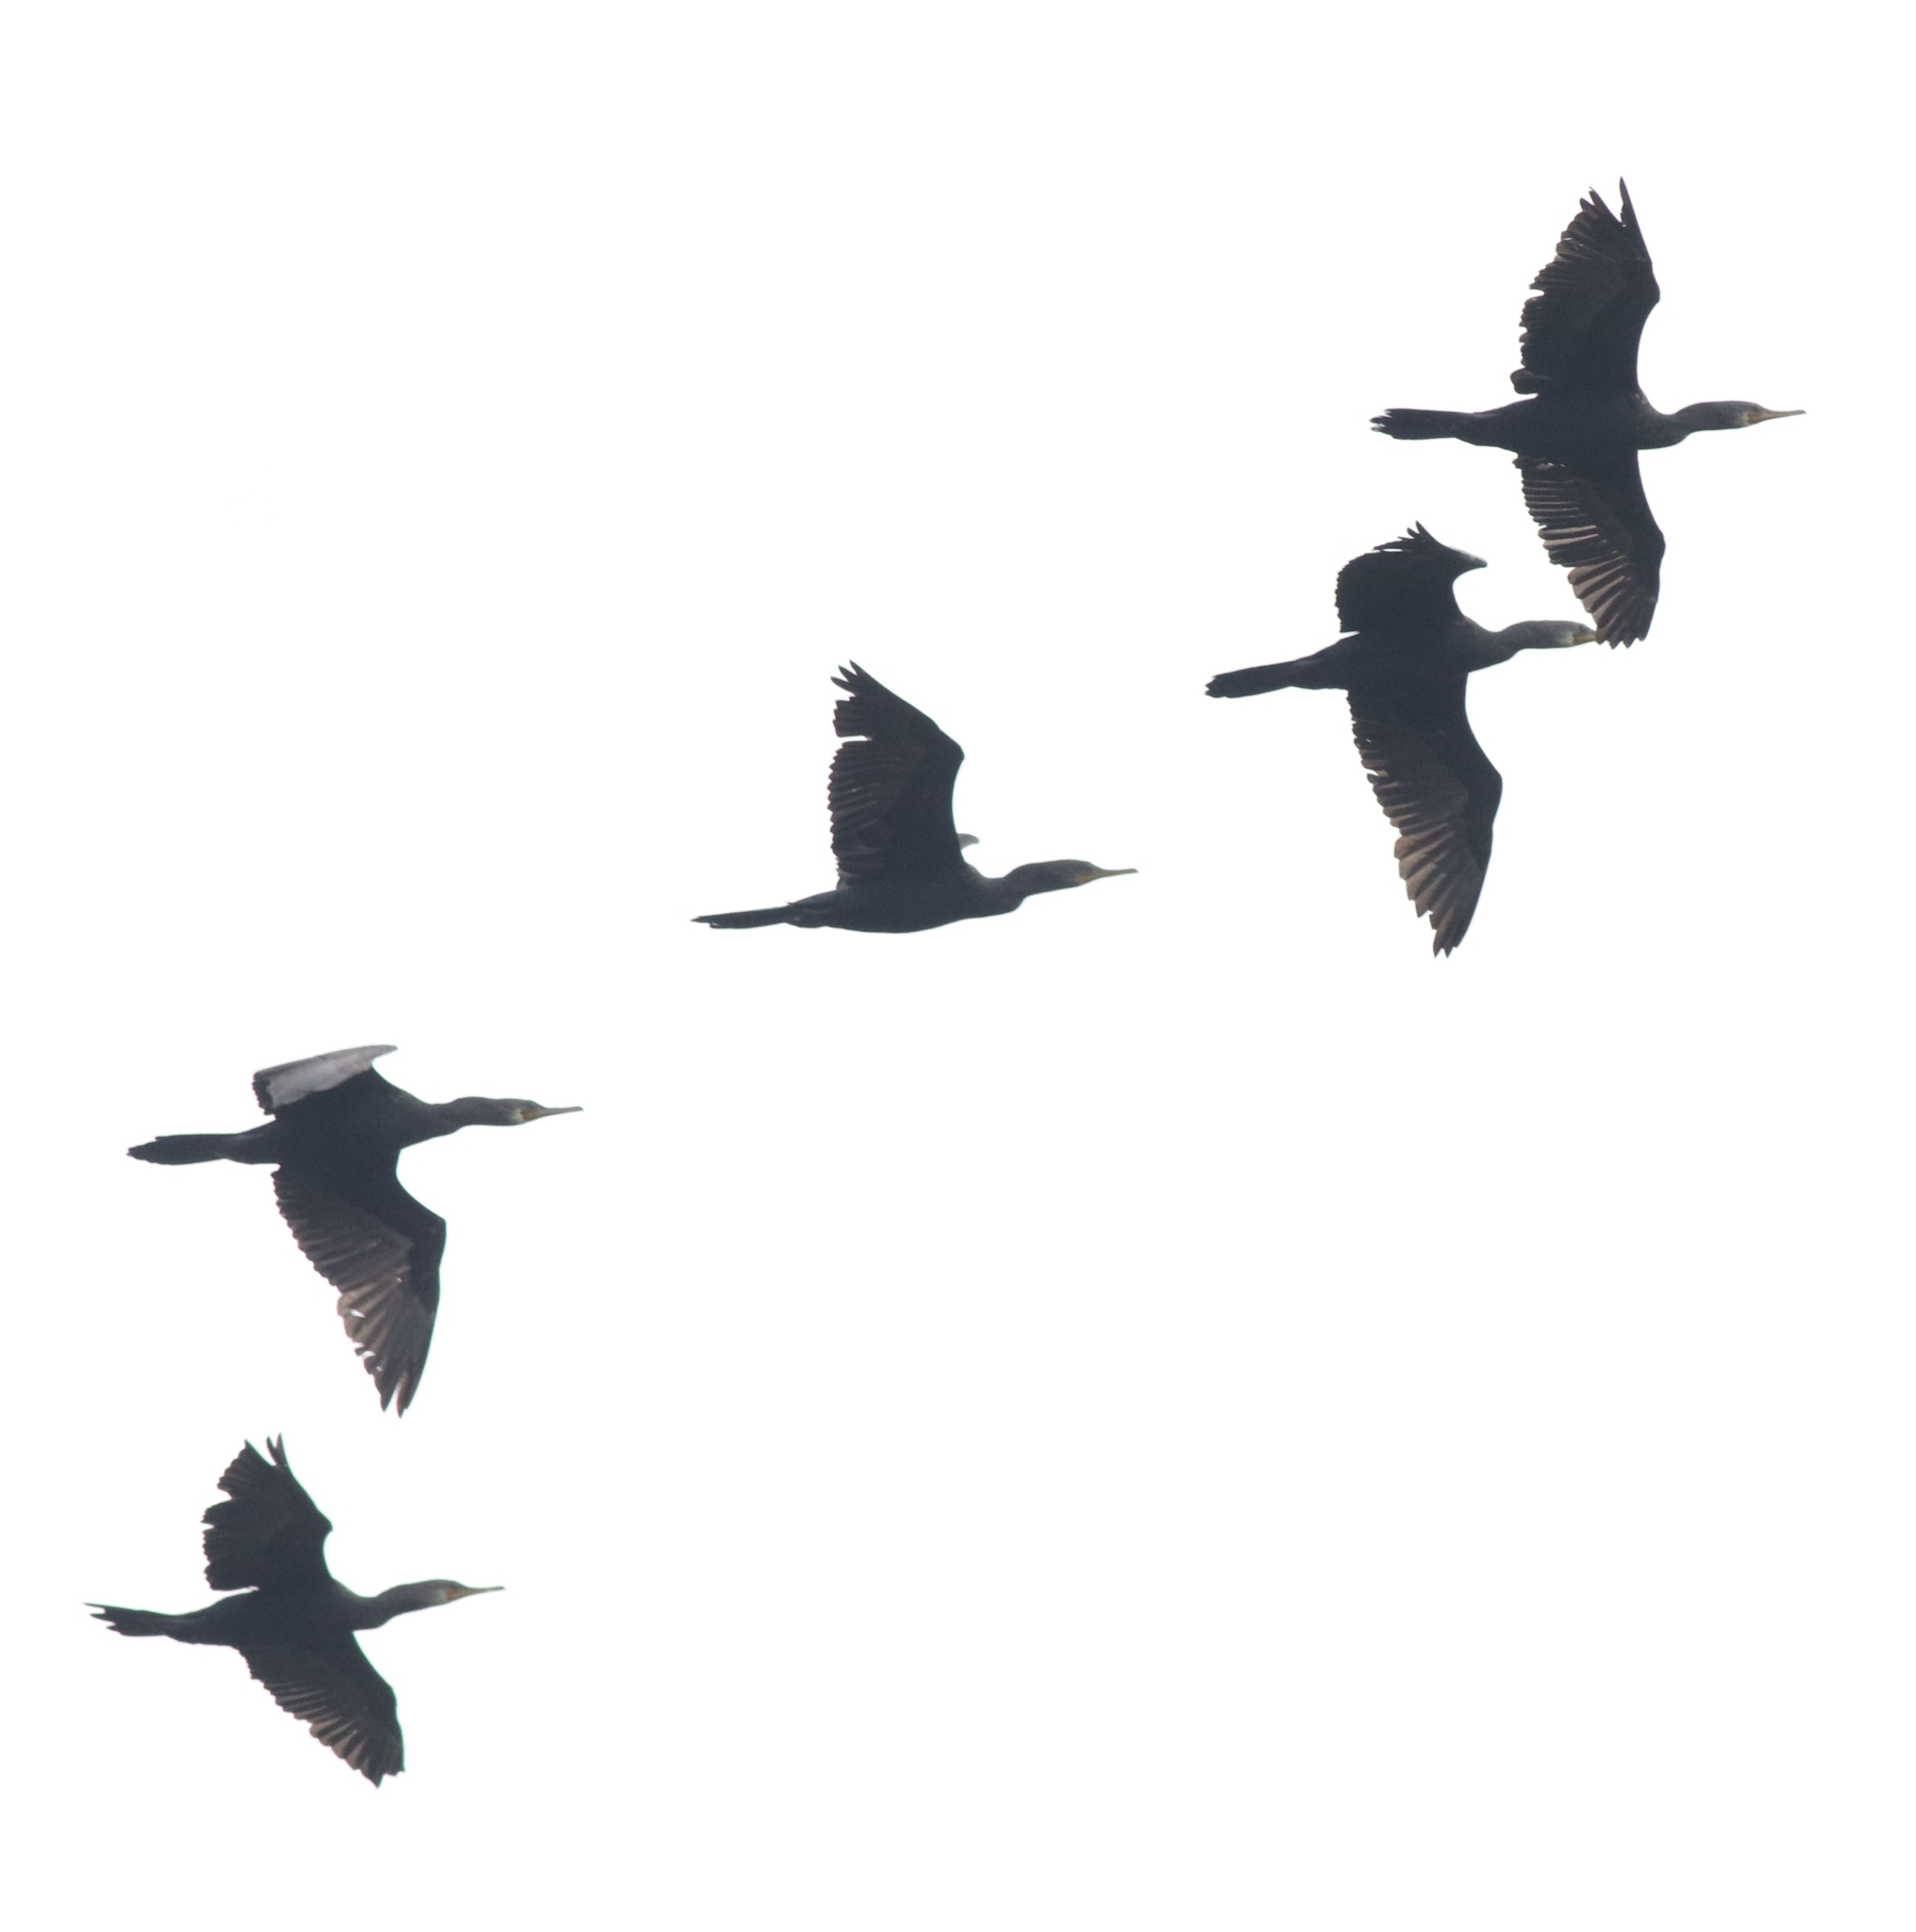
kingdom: Animalia
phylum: Chordata
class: Aves
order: Suliformes
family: Phalacrocoracidae
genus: Phalacrocorax
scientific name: Phalacrocorax fuscicollis
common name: Indian cormorant
